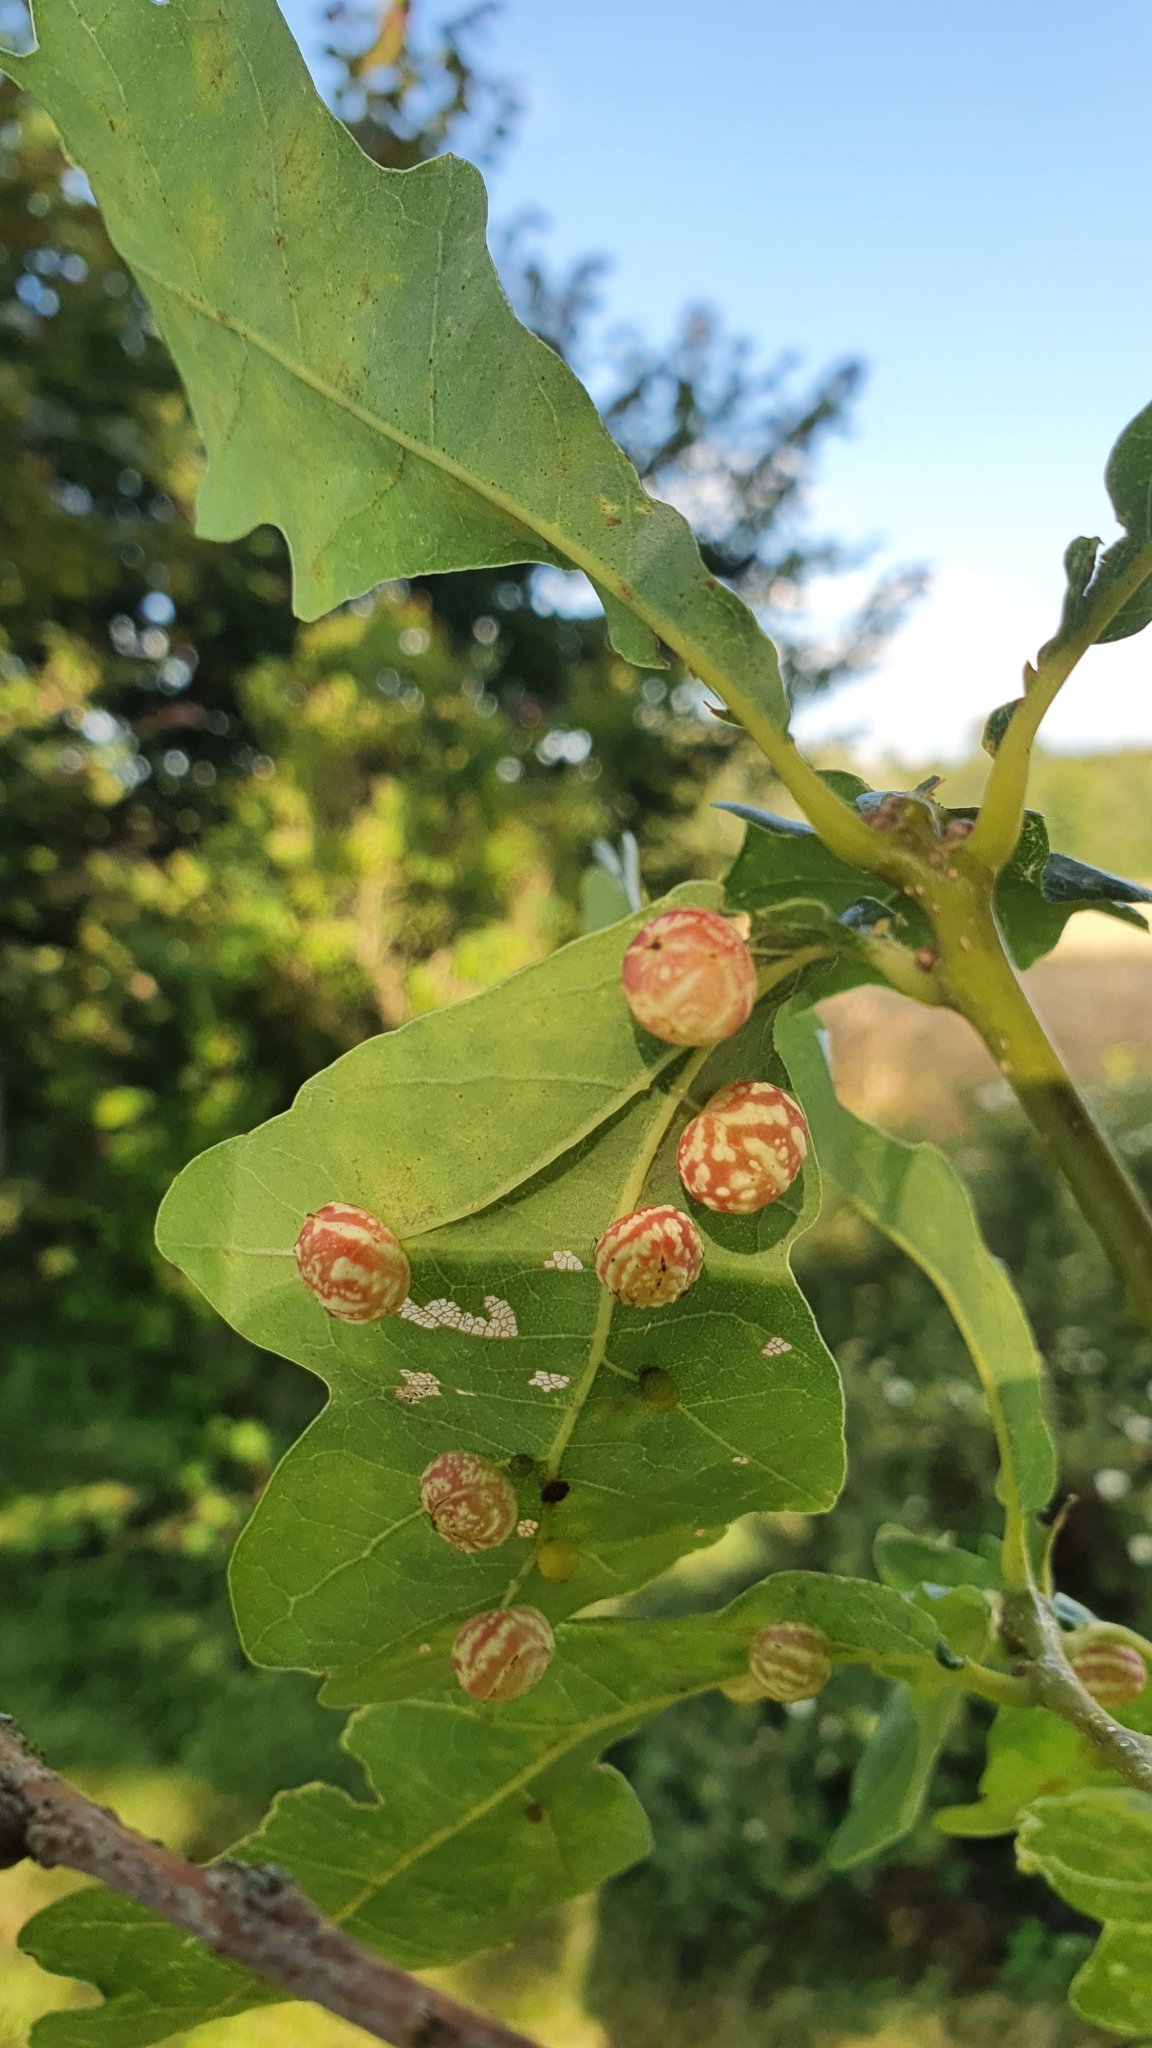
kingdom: Animalia
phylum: Arthropoda
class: Insecta
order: Hymenoptera
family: Cynipidae
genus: Cynips
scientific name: Cynips longiventris
